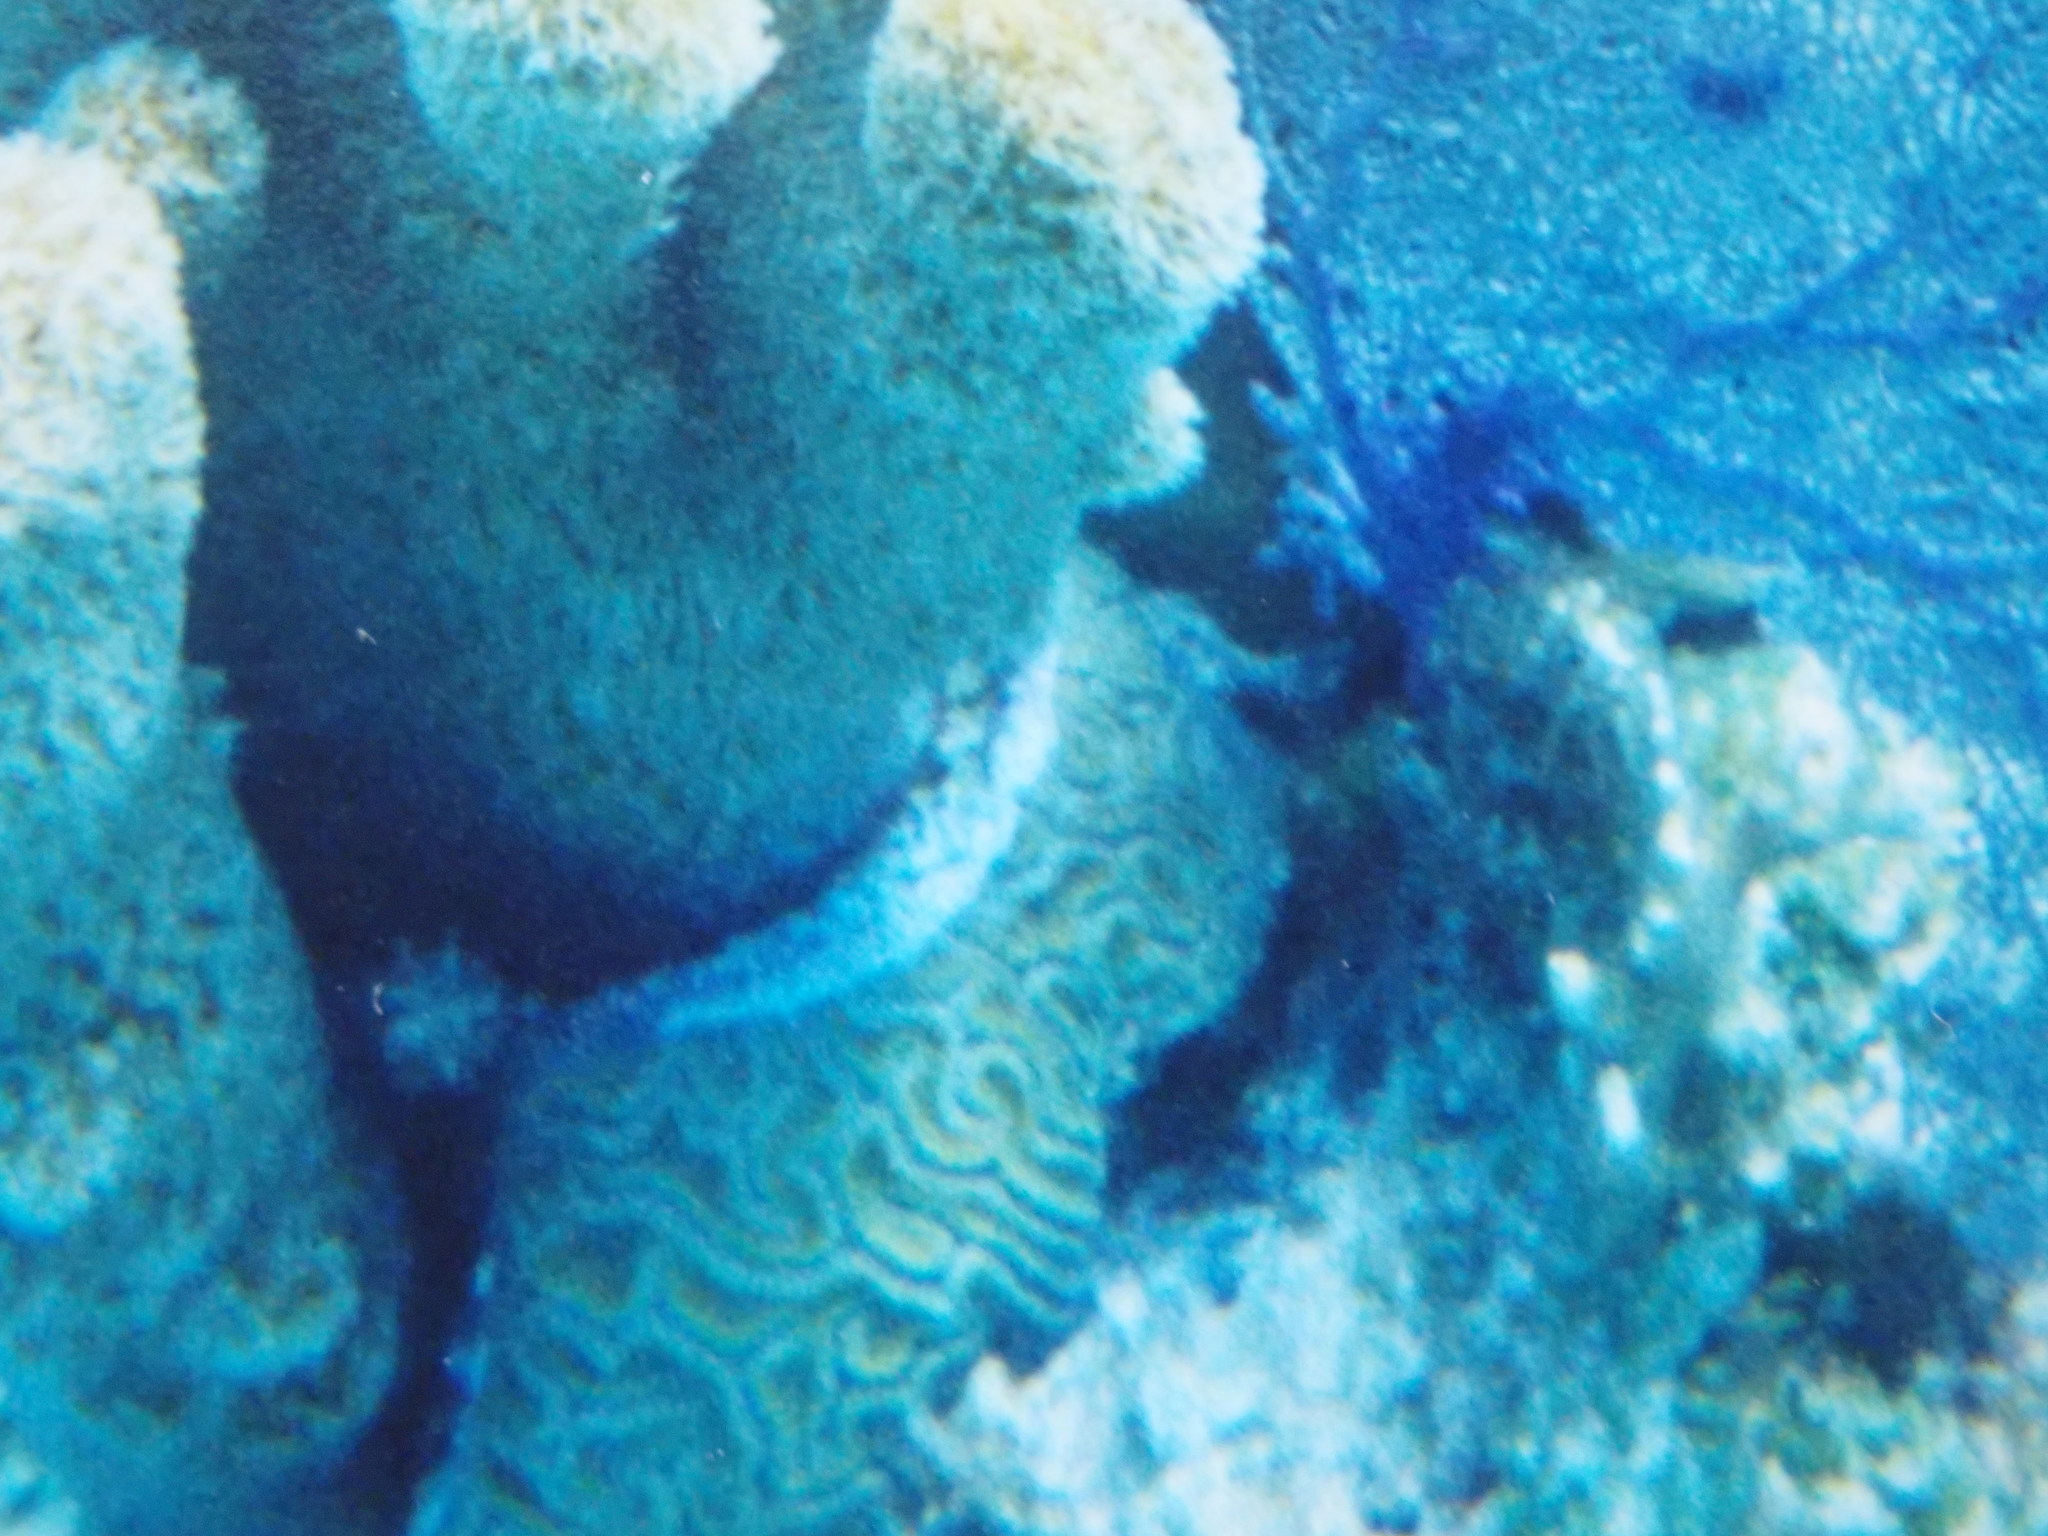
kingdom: Animalia
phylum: Cnidaria
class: Anthozoa
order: Scleractinia
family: Faviidae
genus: Diploria
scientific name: Diploria labyrinthiformis
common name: Grooved brain coral
